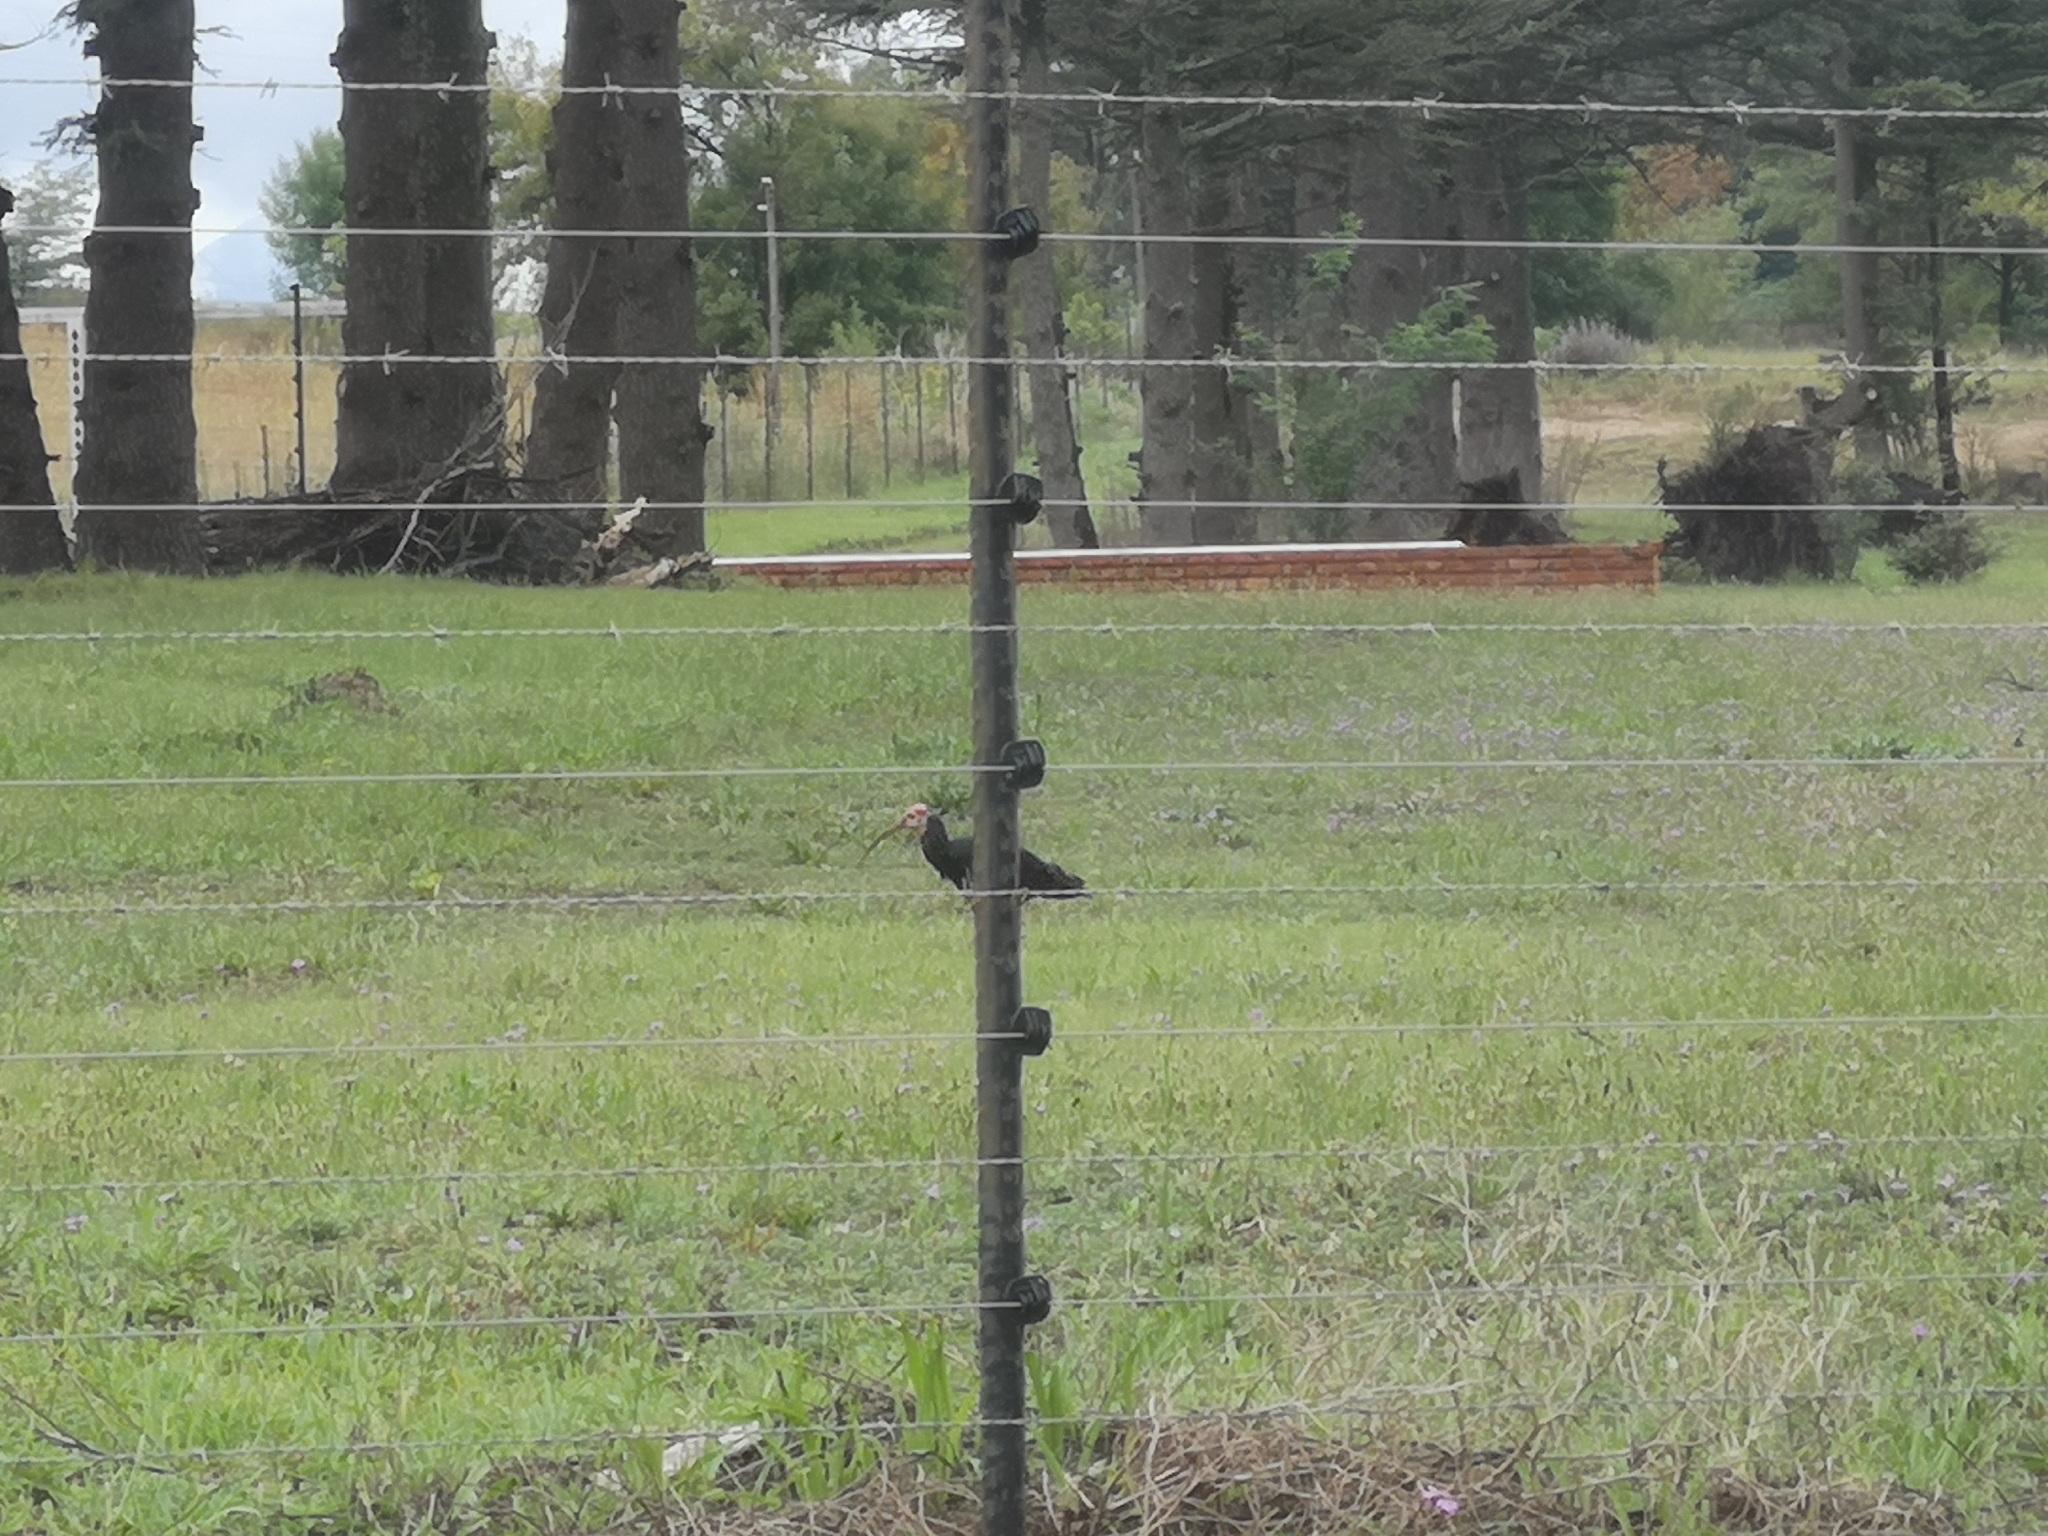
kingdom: Animalia
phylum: Chordata
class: Aves
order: Pelecaniformes
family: Threskiornithidae
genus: Geronticus
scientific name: Geronticus calvus
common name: Southern bald ibis
